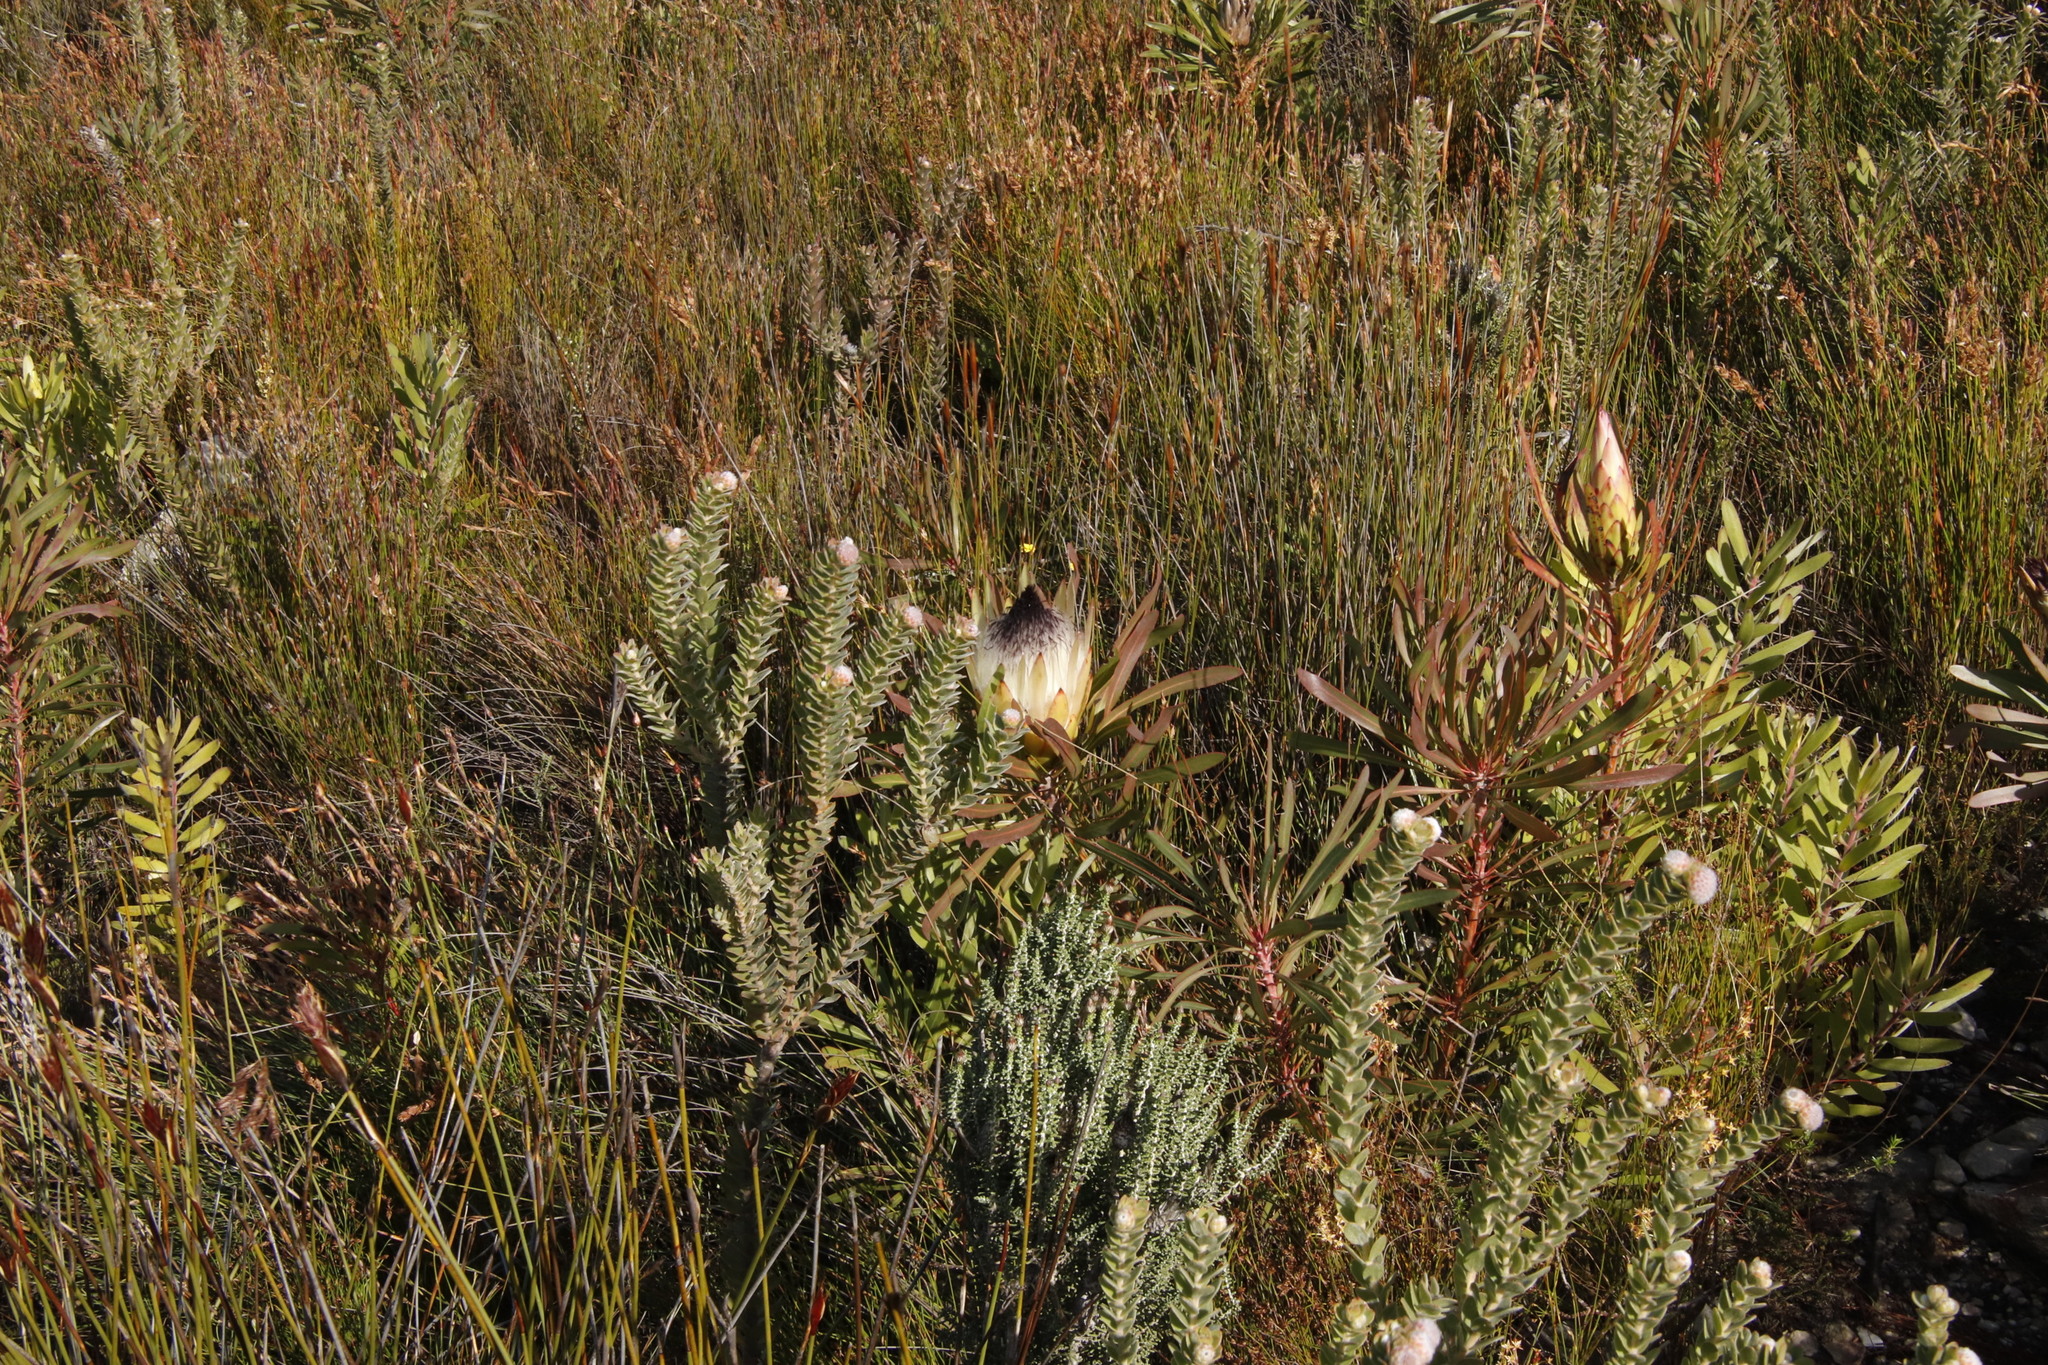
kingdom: Plantae
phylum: Tracheophyta
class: Magnoliopsida
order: Proteales
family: Proteaceae
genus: Protea
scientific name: Protea longifolia
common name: Long-leaf sugarbush
